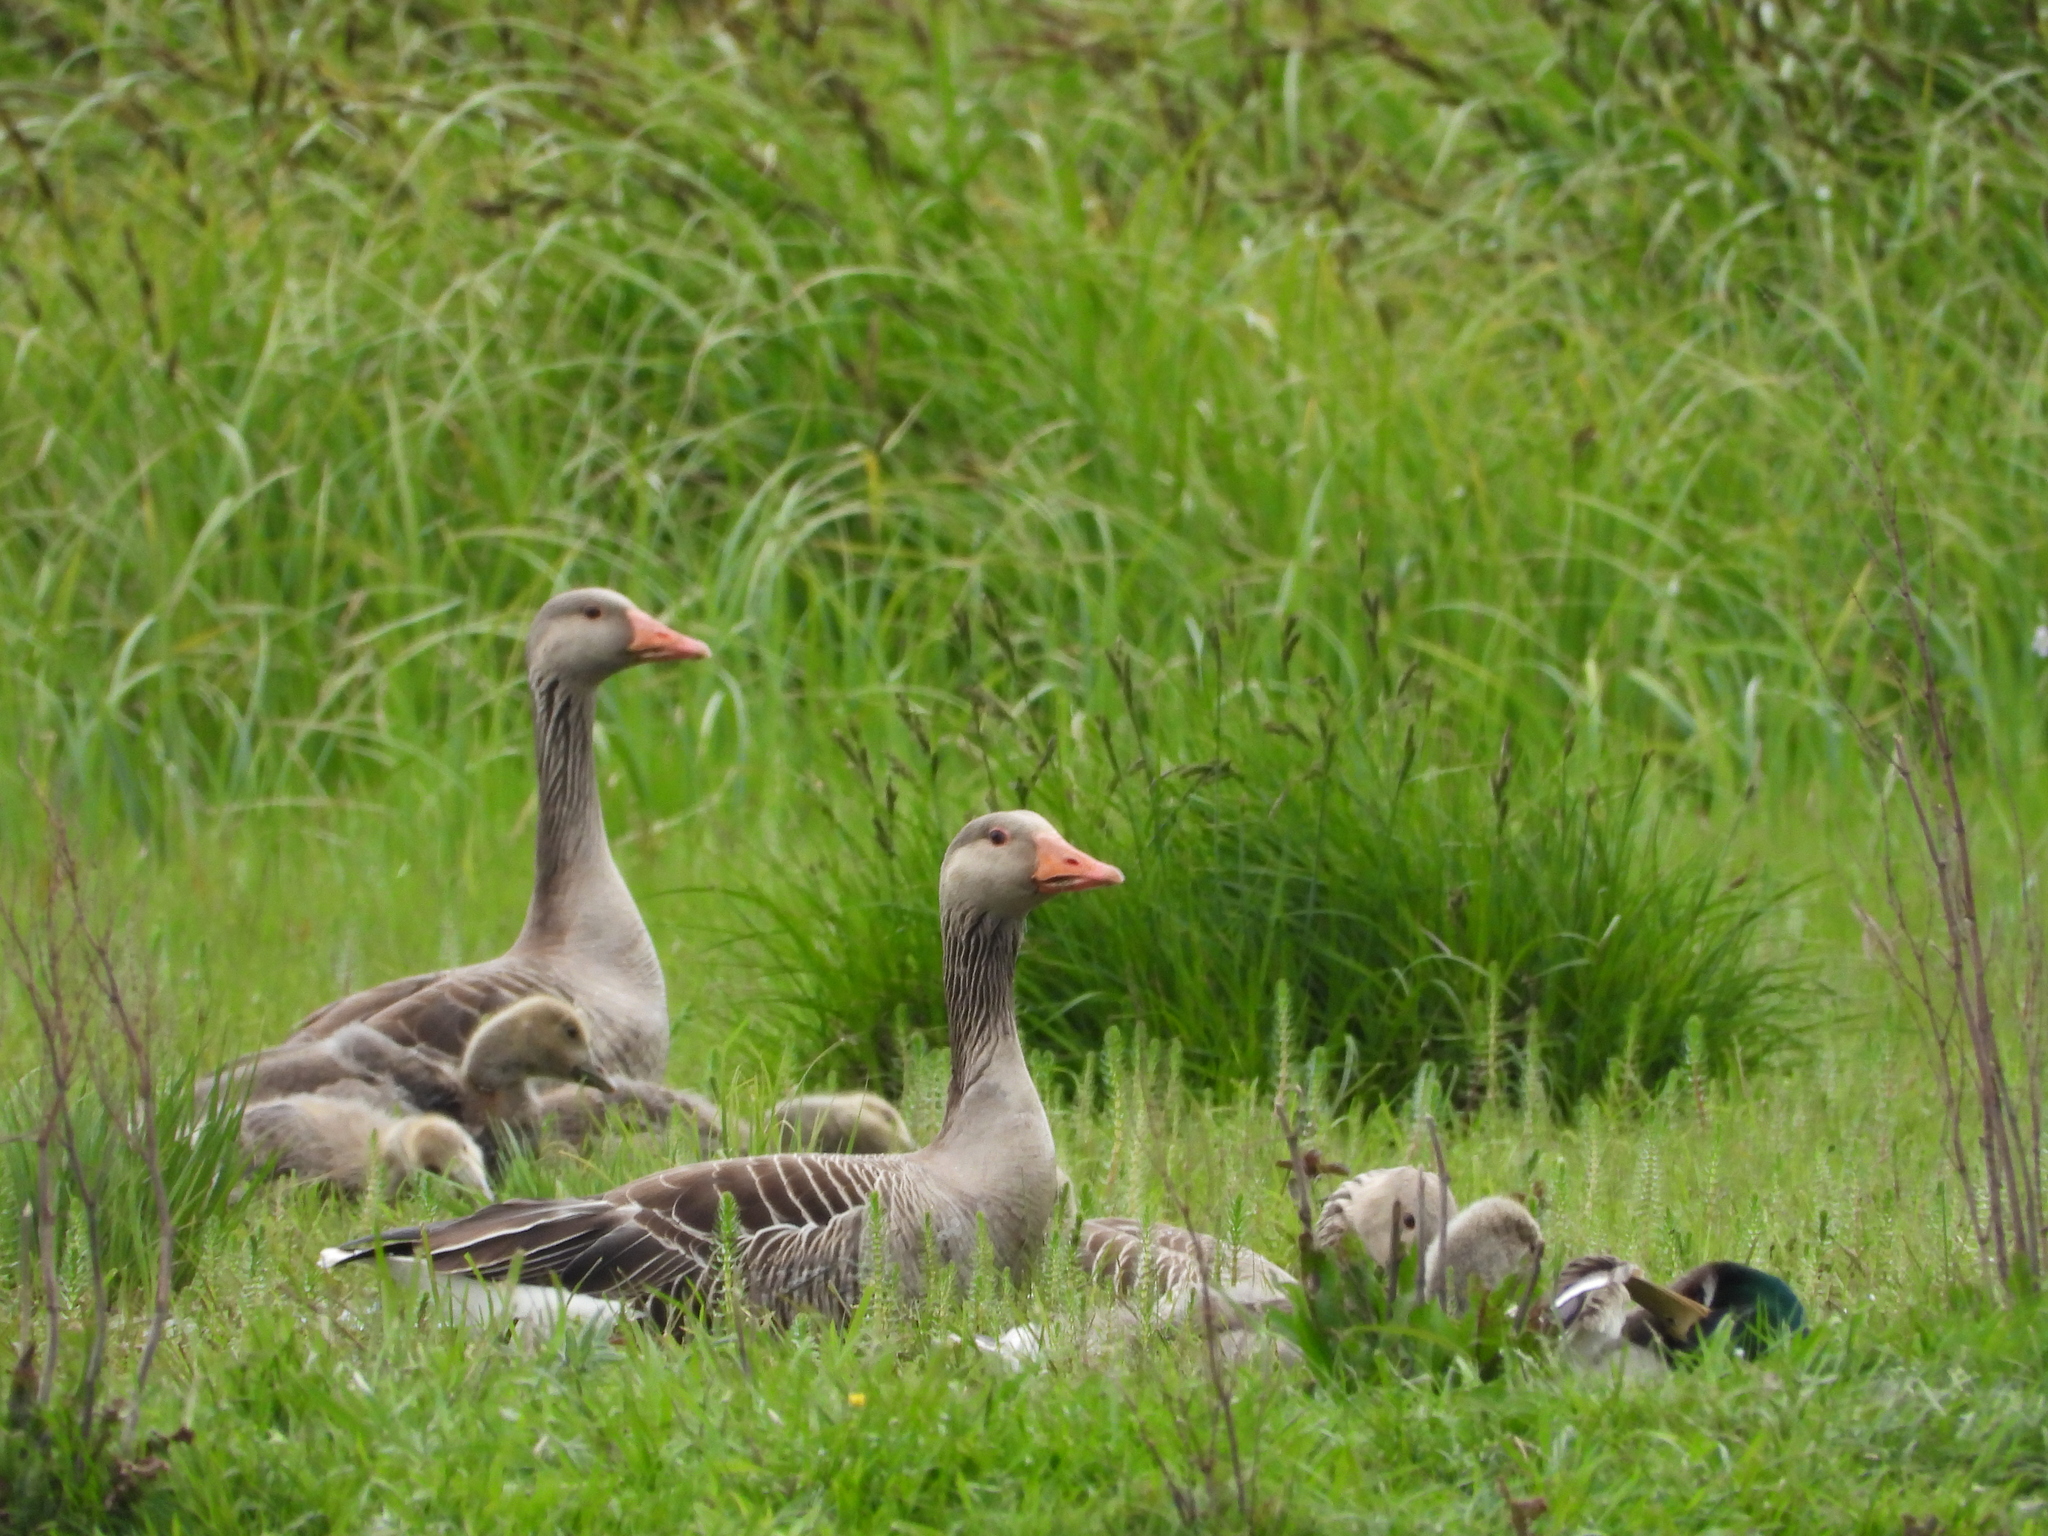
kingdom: Animalia
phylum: Chordata
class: Aves
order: Anseriformes
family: Anatidae
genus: Anser
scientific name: Anser anser
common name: Greylag goose
